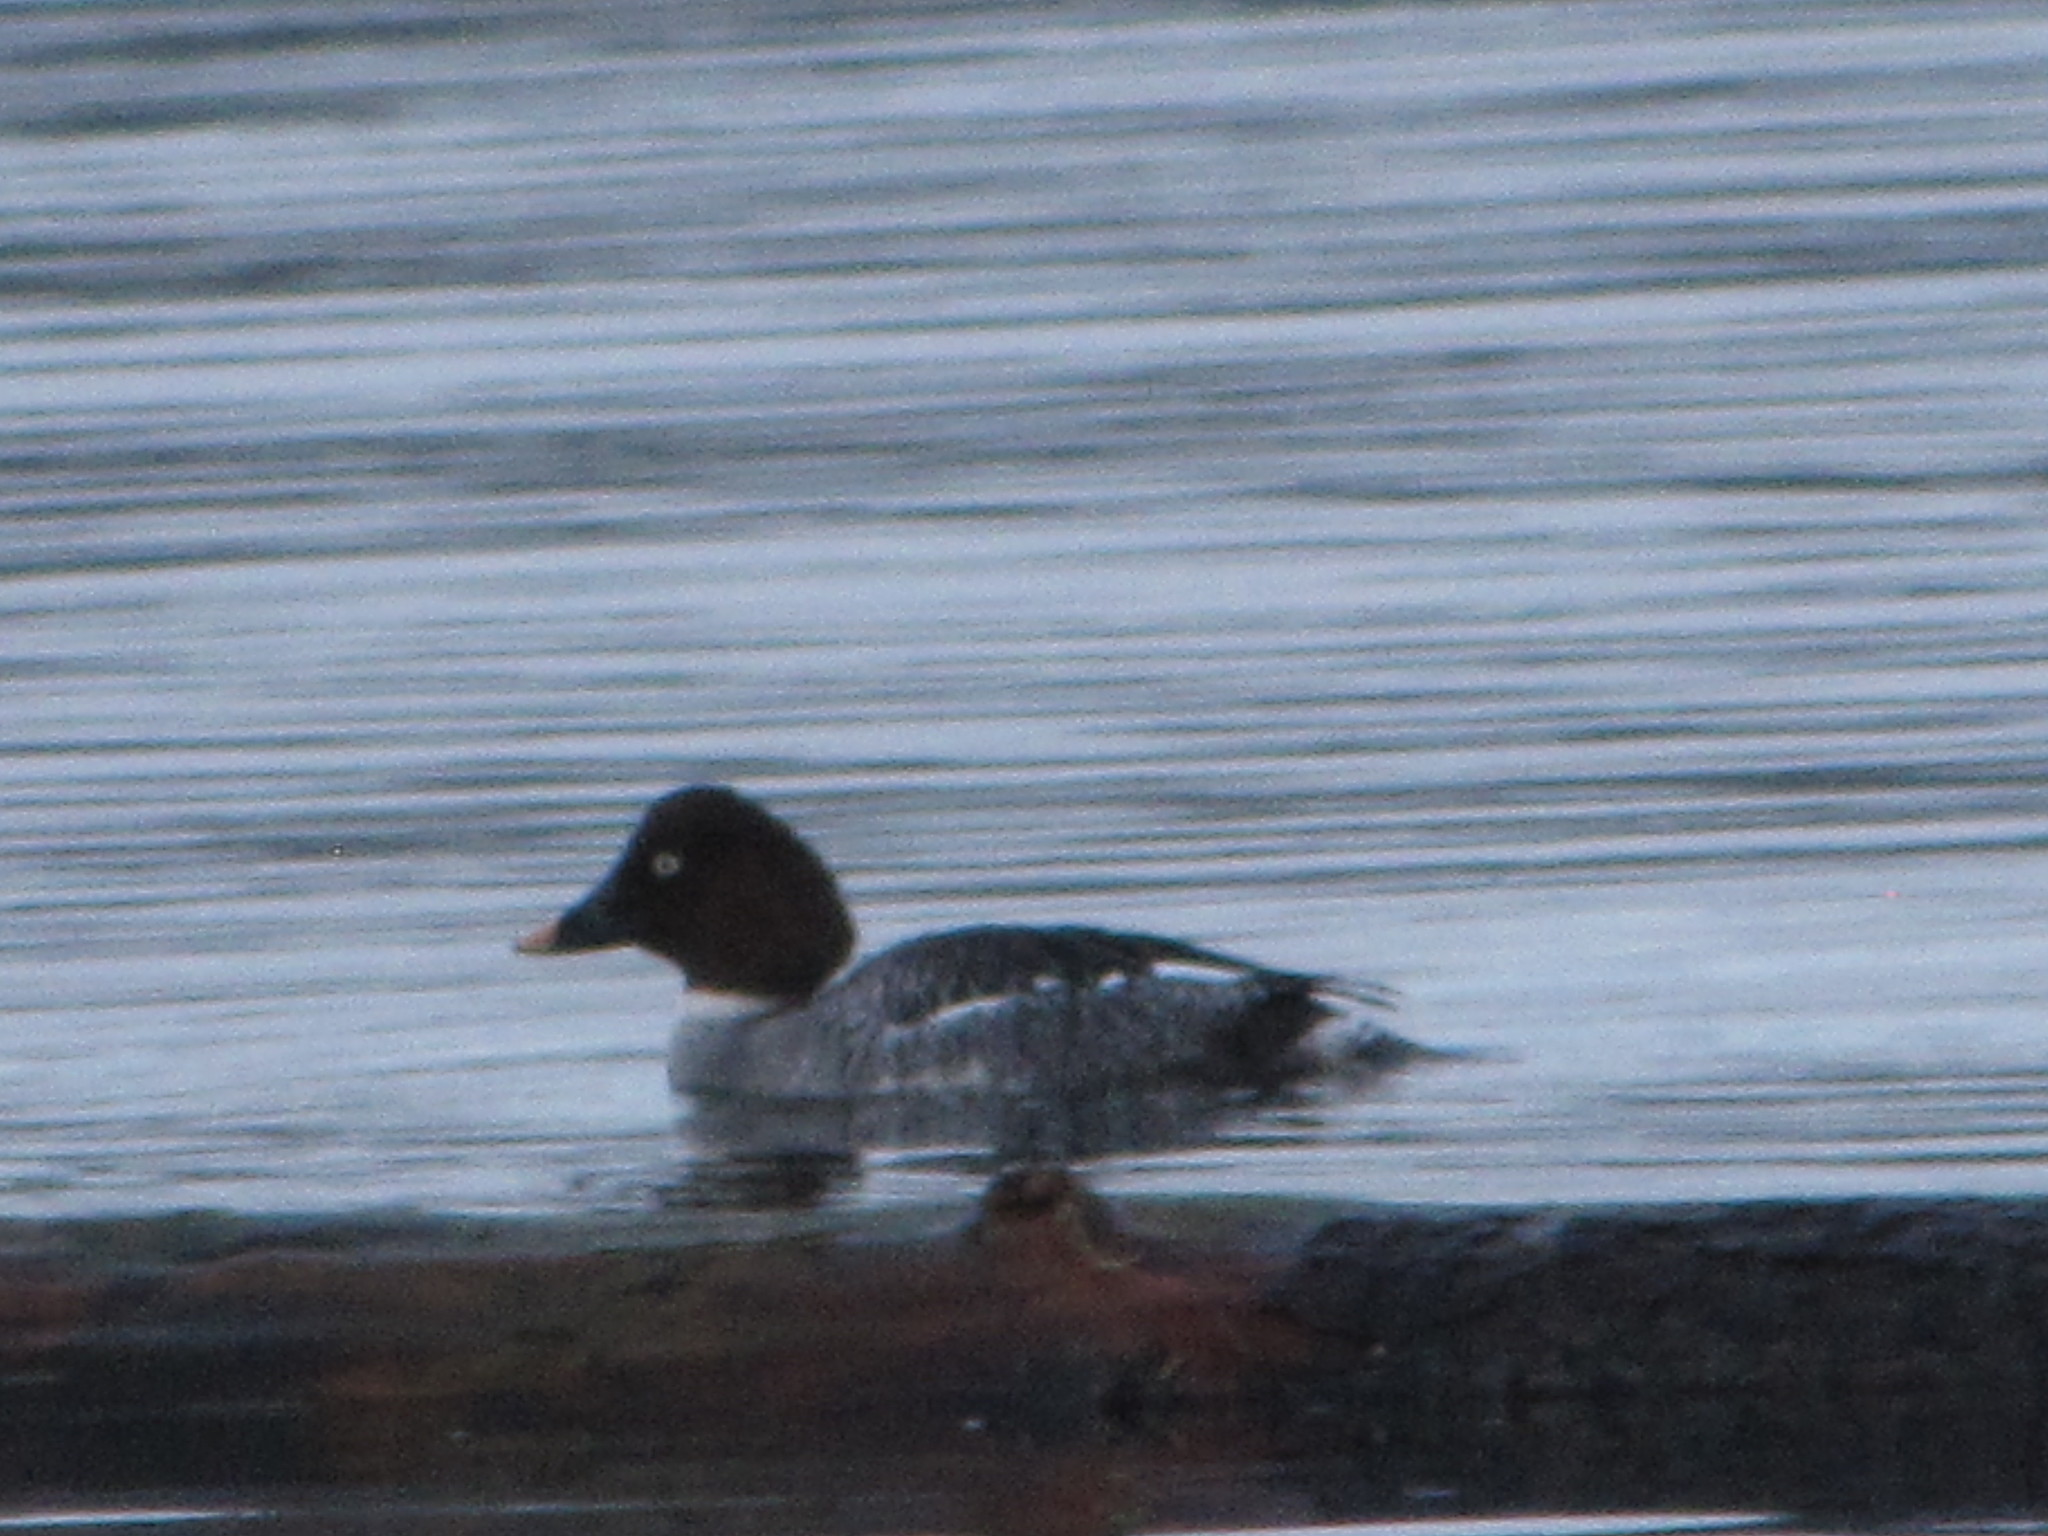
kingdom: Animalia
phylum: Chordata
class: Aves
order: Anseriformes
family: Anatidae
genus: Bucephala
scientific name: Bucephala clangula
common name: Common goldeneye
